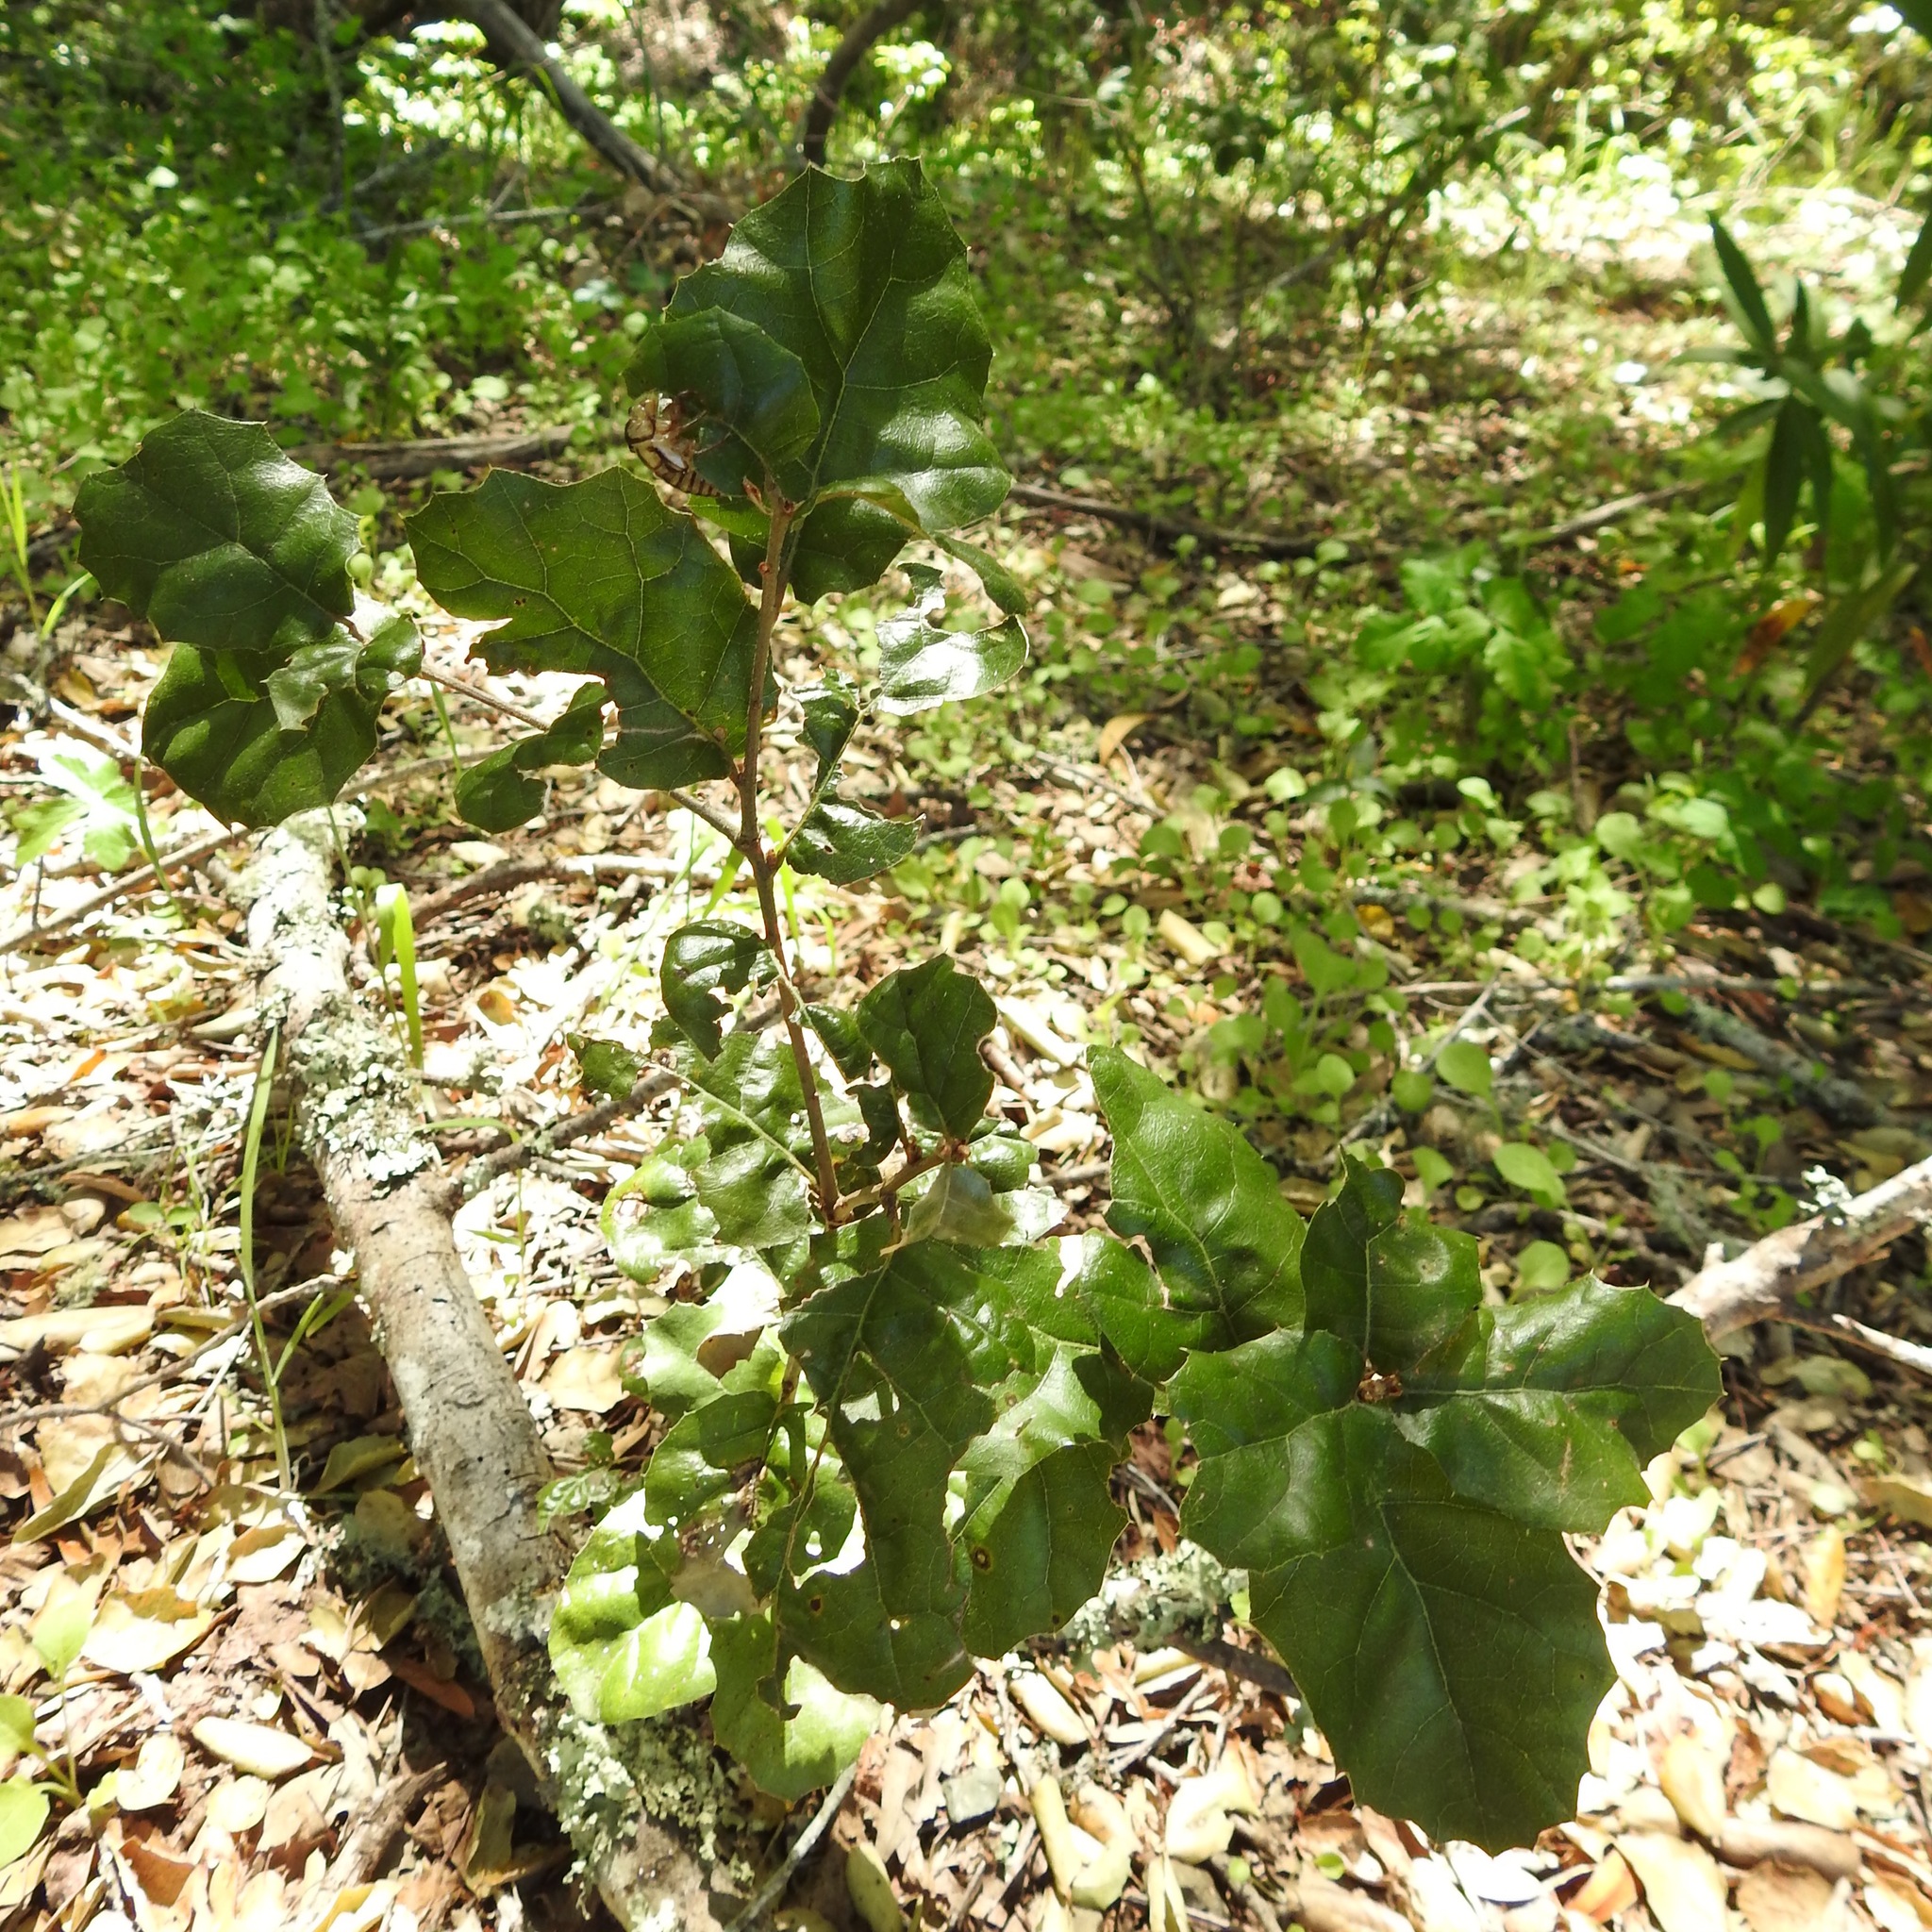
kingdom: Plantae
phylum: Tracheophyta
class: Magnoliopsida
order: Fagales
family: Fagaceae
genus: Quercus
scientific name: Quercus agrifolia
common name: California live oak
